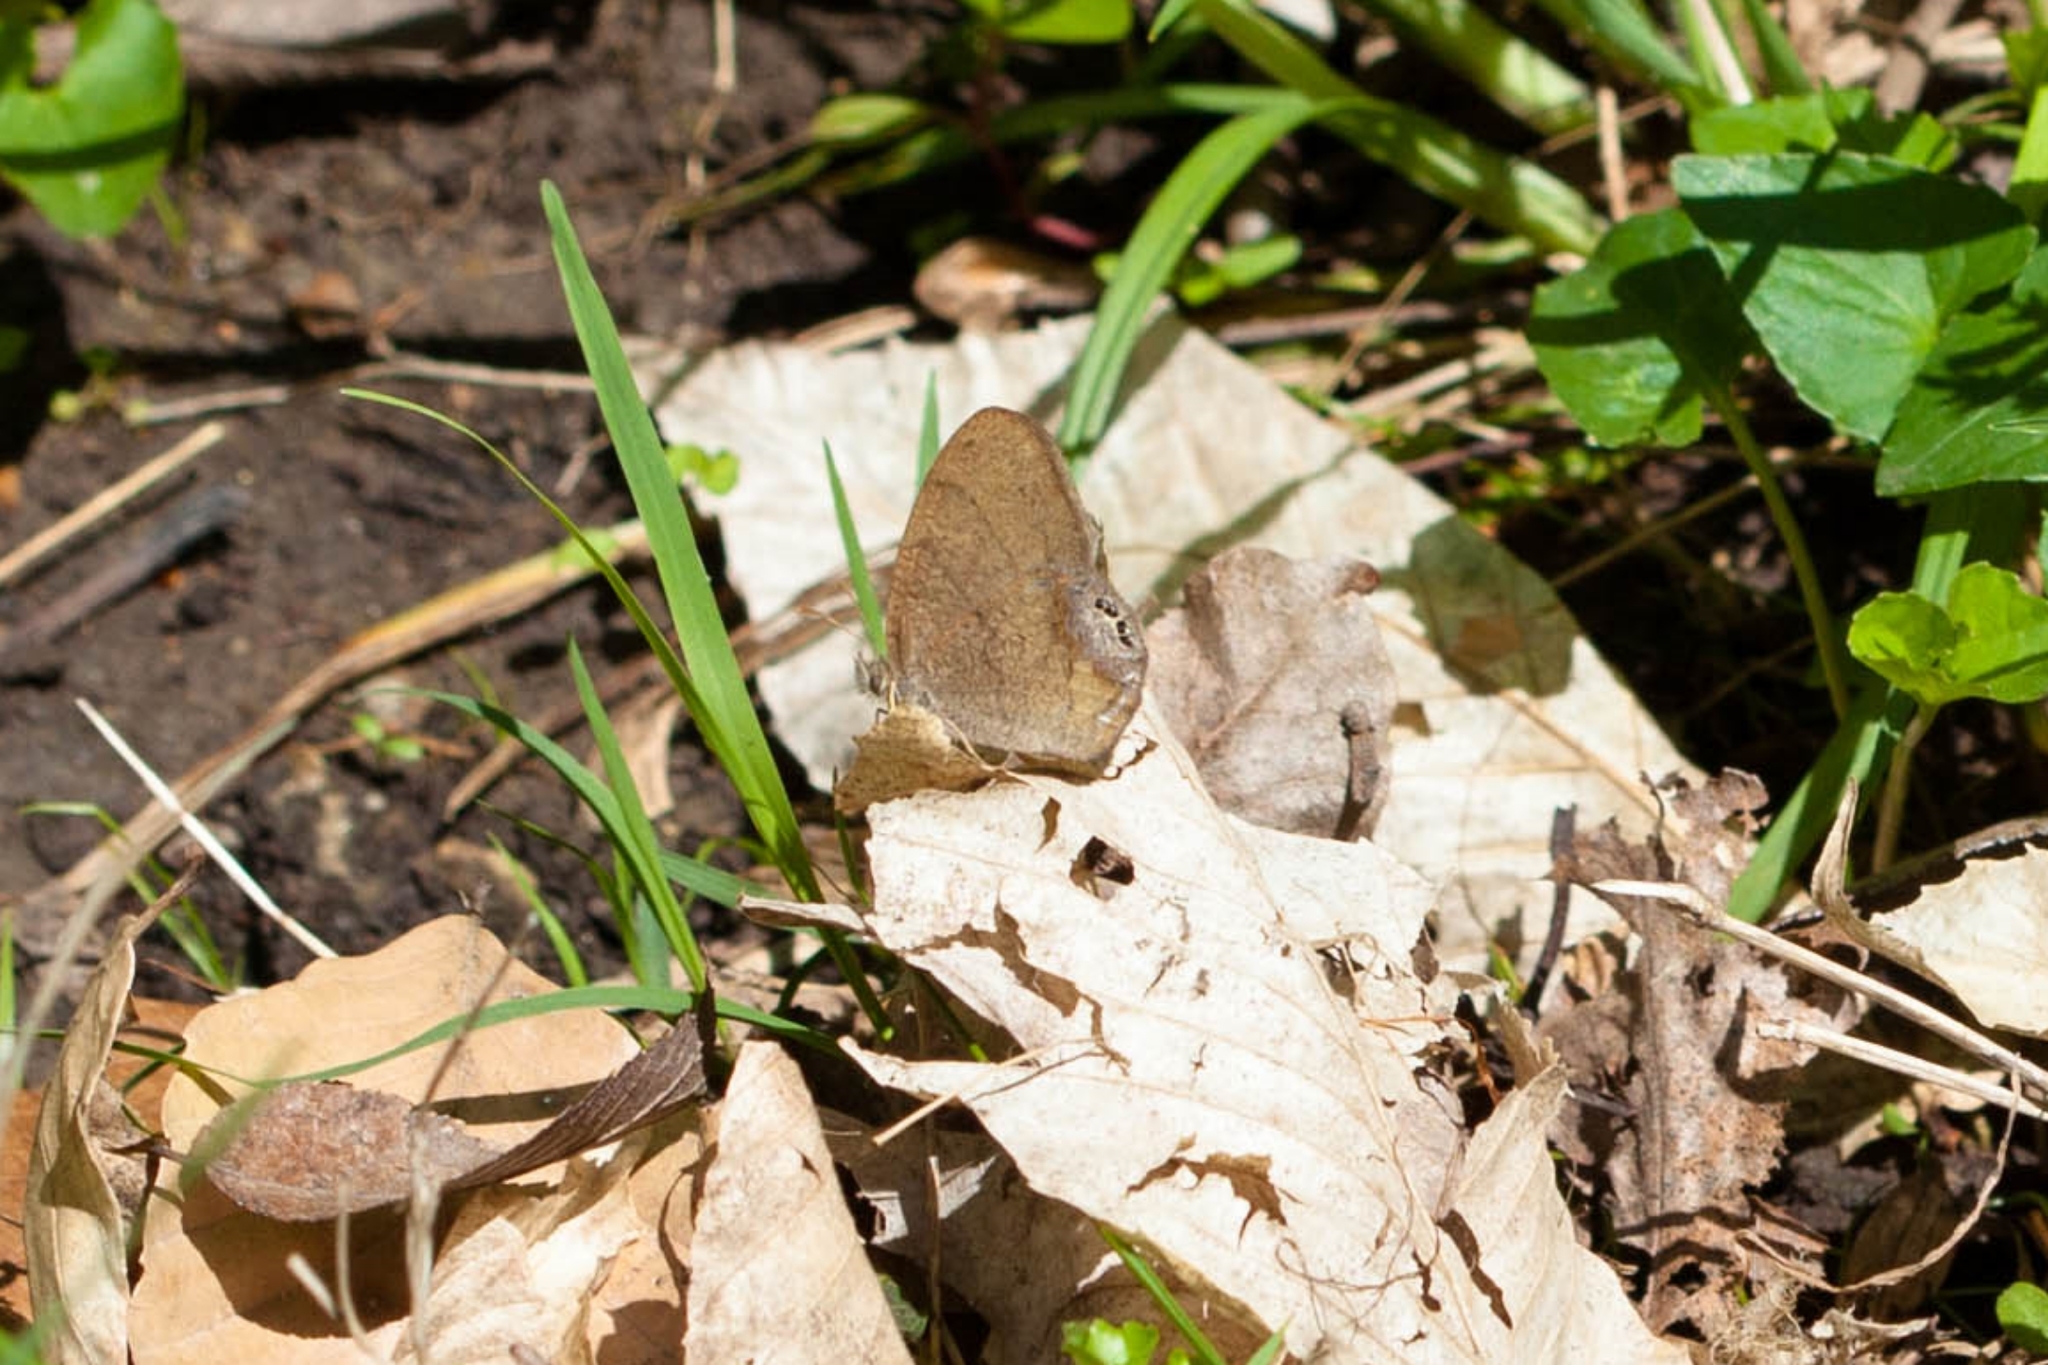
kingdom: Animalia
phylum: Arthropoda
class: Insecta
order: Lepidoptera
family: Nymphalidae
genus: Euptychia
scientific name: Euptychia cornelius
